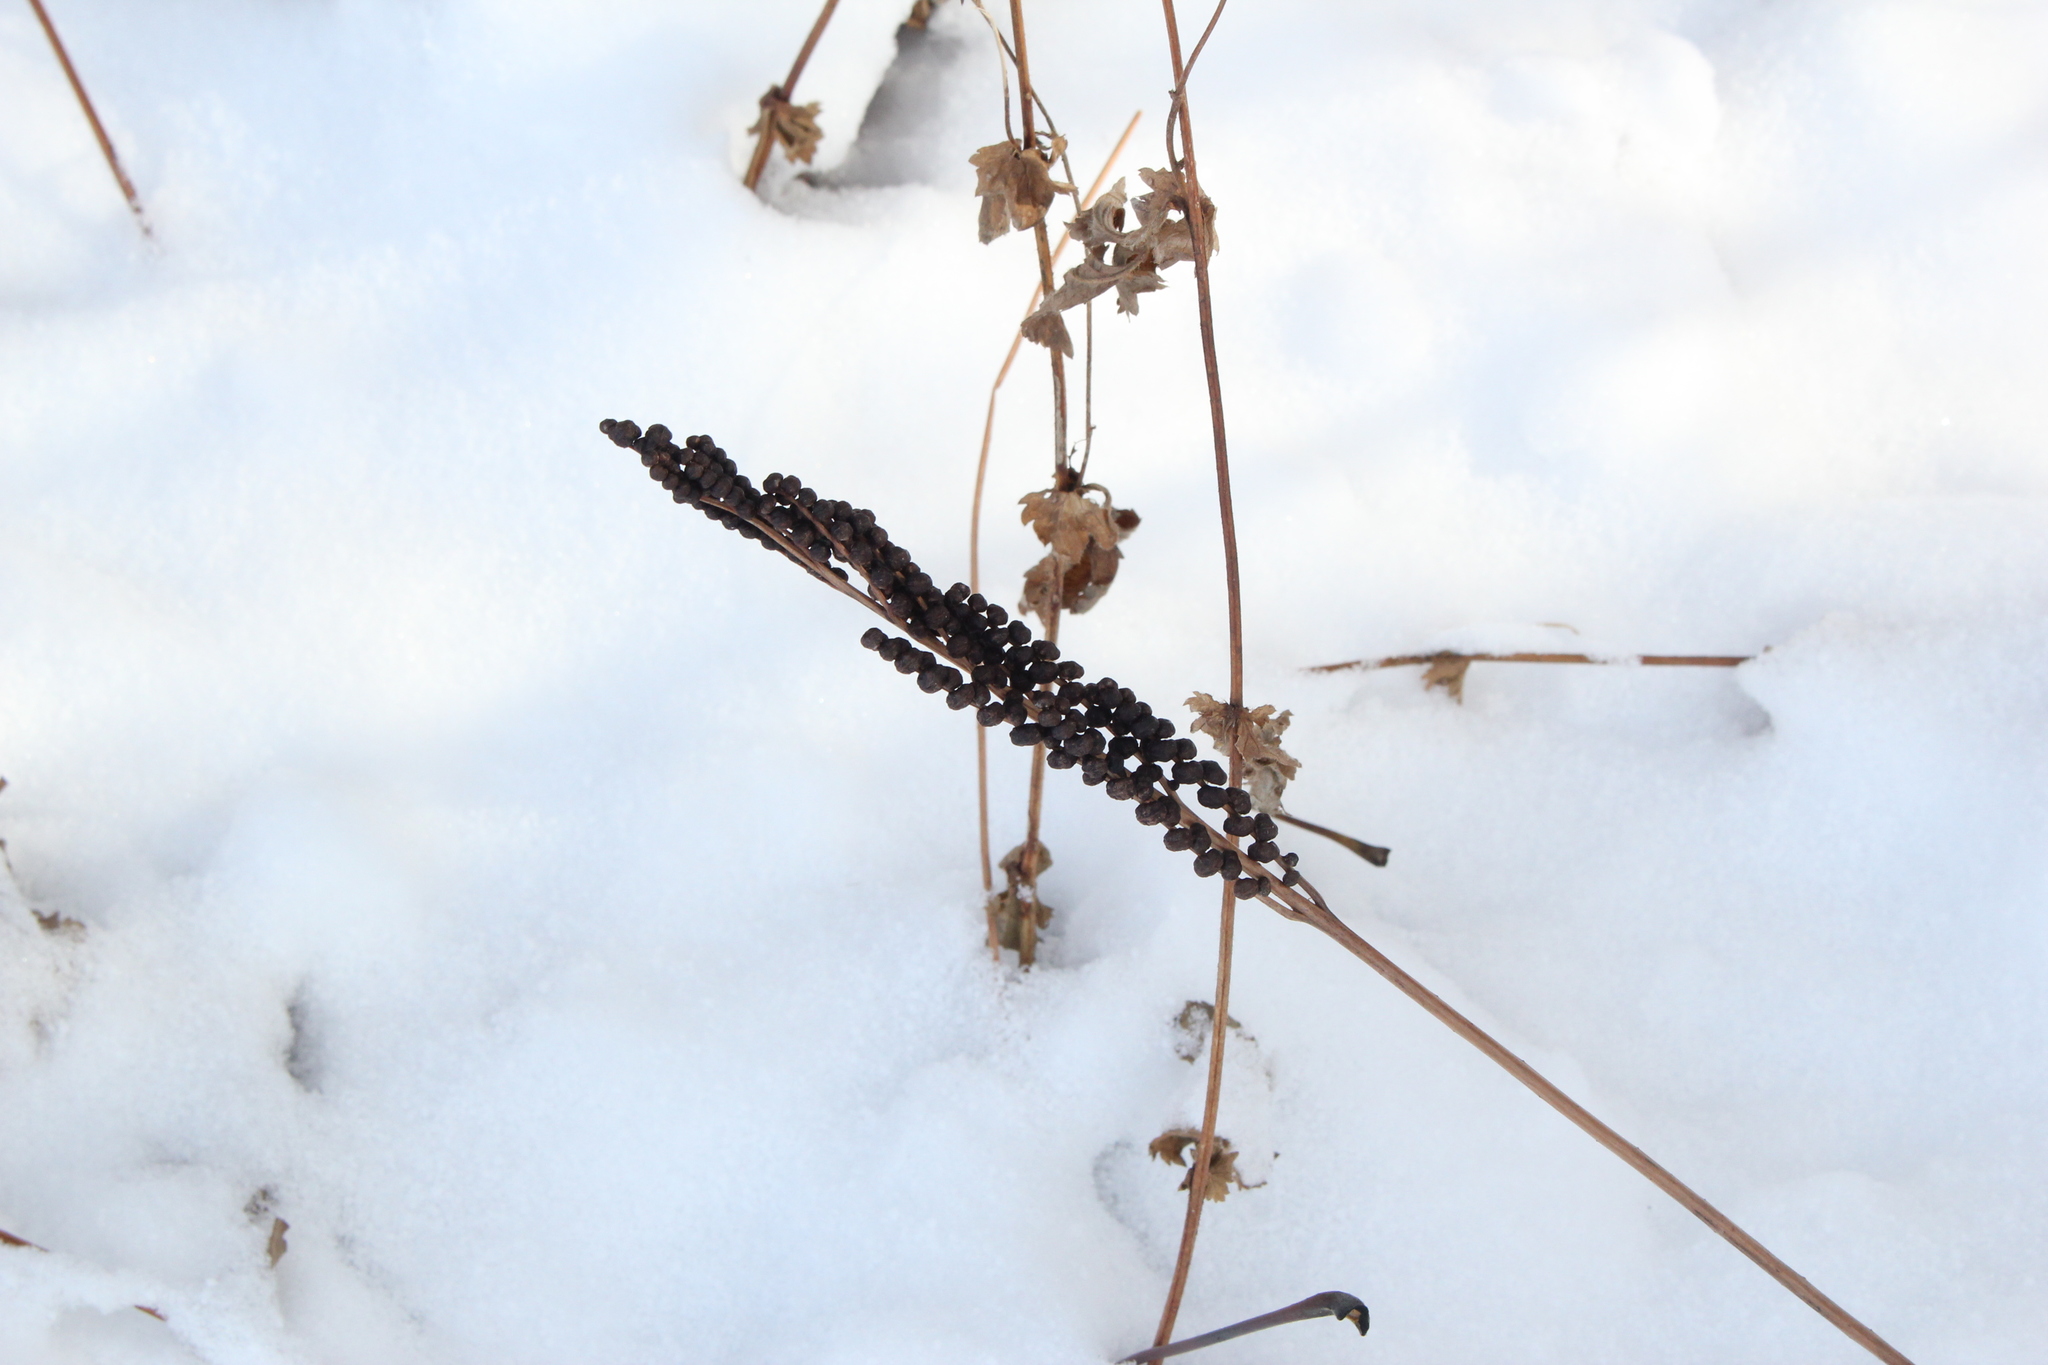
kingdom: Plantae
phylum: Tracheophyta
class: Polypodiopsida
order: Polypodiales
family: Onocleaceae
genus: Onoclea
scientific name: Onoclea sensibilis
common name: Sensitive fern
